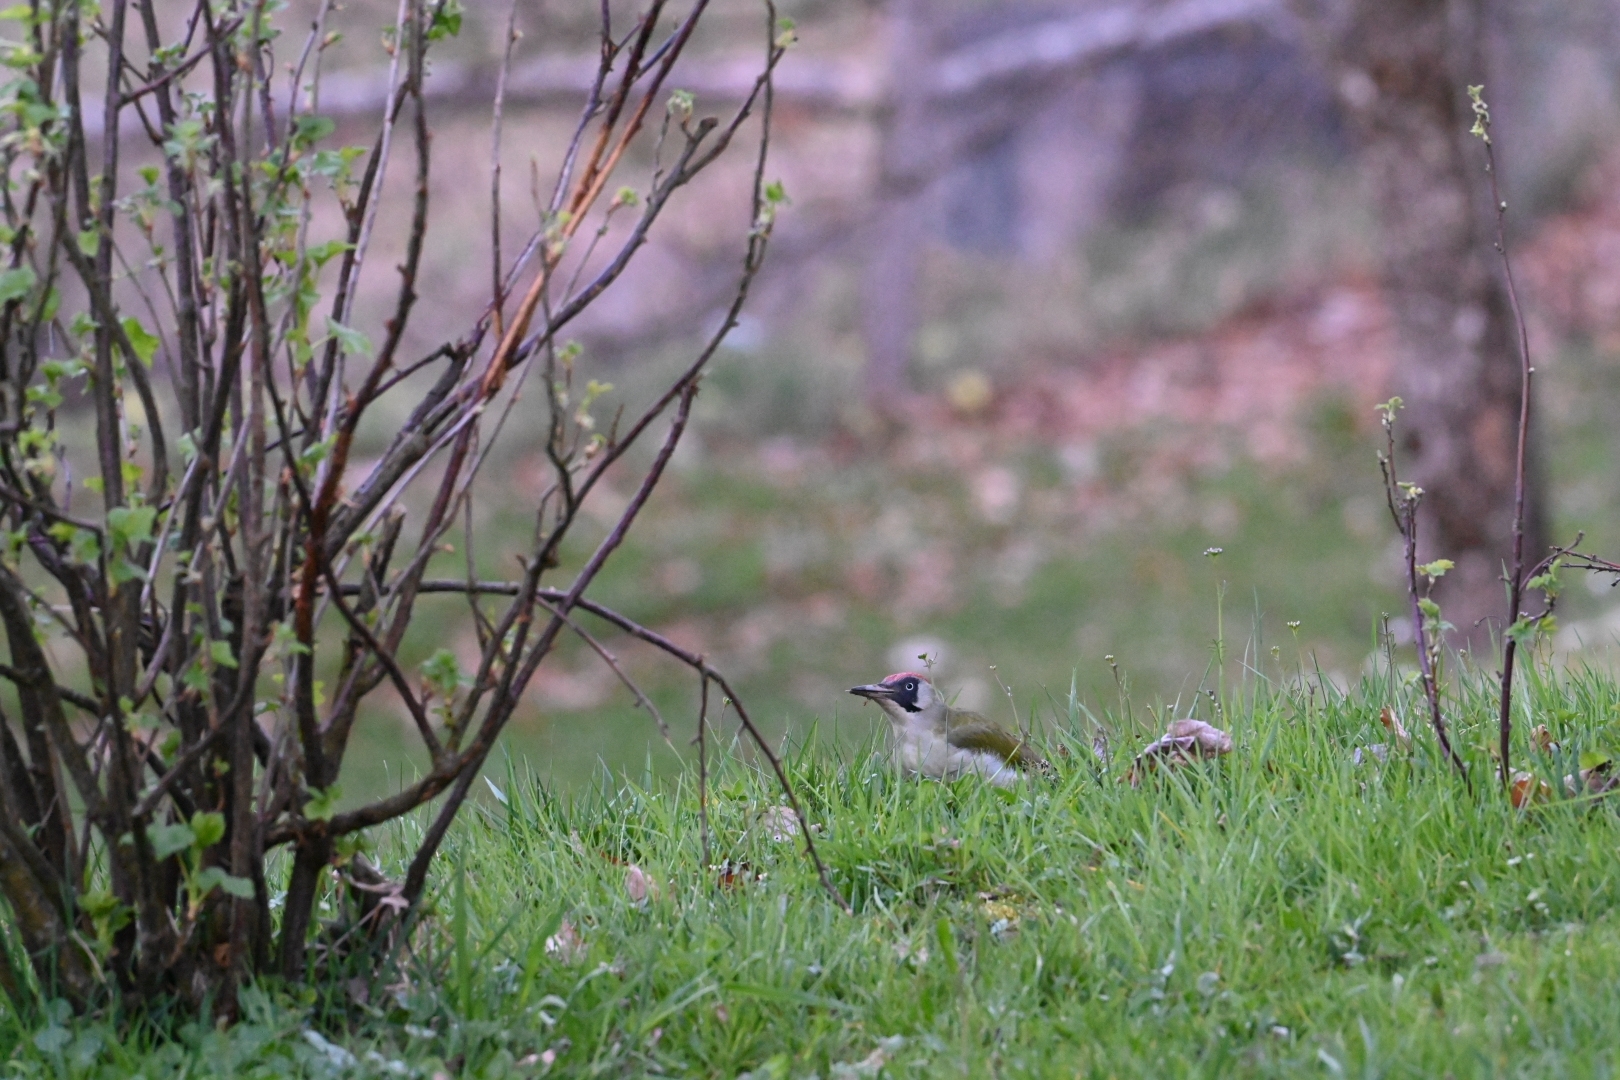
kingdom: Animalia
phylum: Chordata
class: Aves
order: Piciformes
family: Picidae
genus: Picus
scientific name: Picus viridis
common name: European green woodpecker
